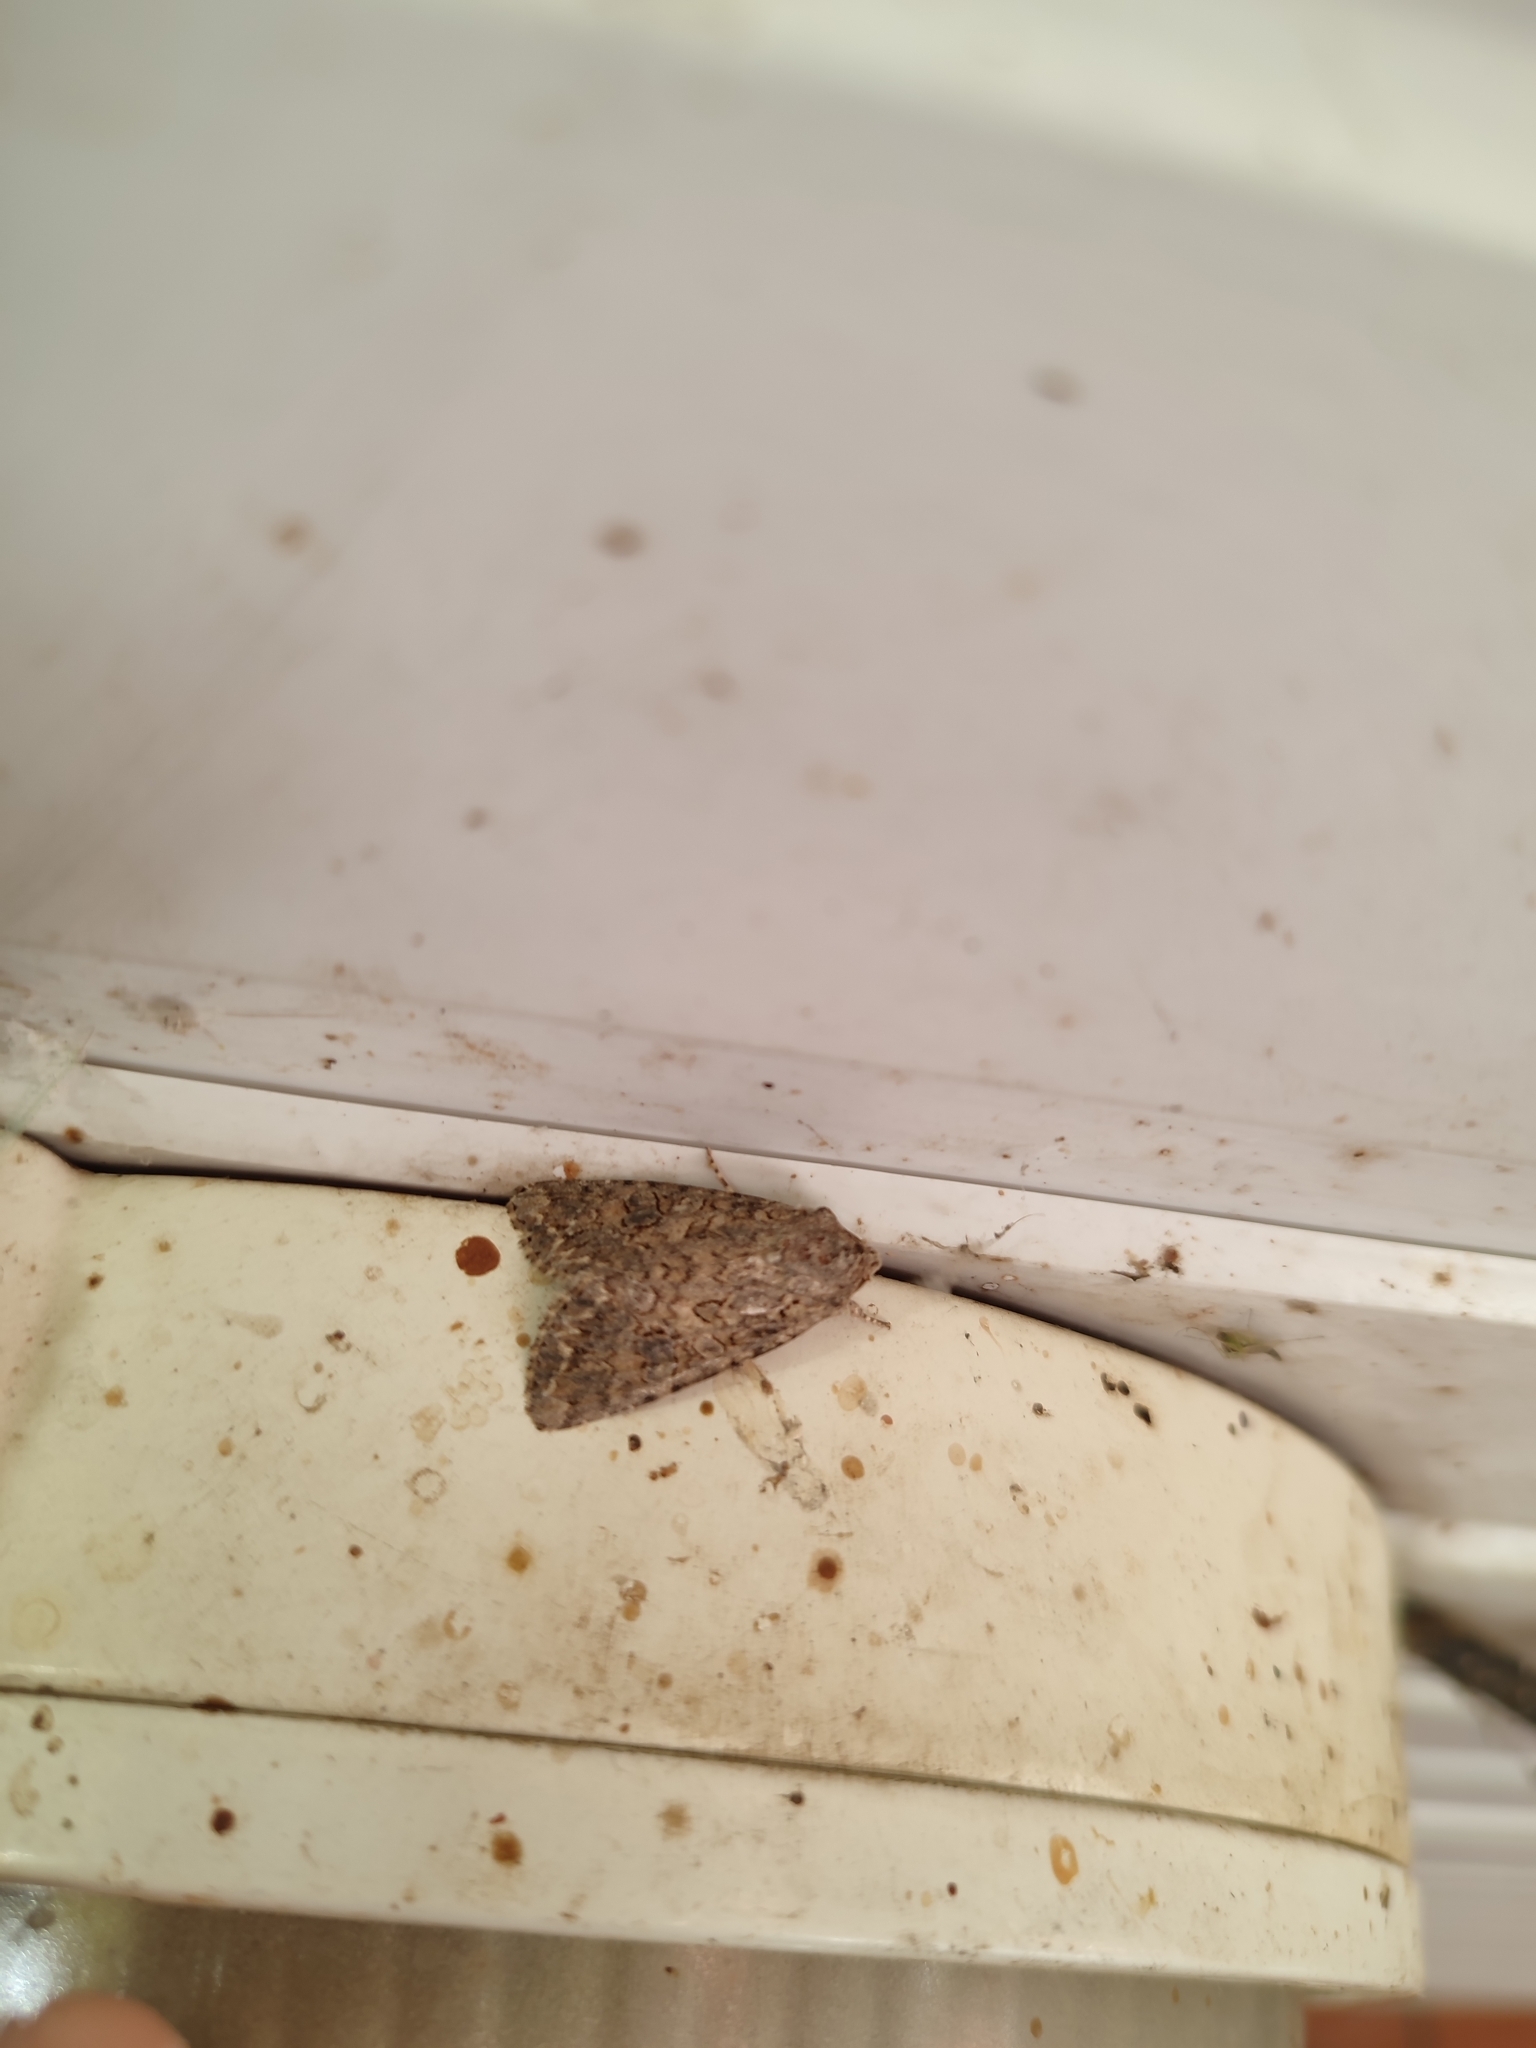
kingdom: Animalia
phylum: Arthropoda
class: Insecta
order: Lepidoptera
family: Noctuidae
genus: Anarta
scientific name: Anarta trifolii
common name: Clover cutworm moth
